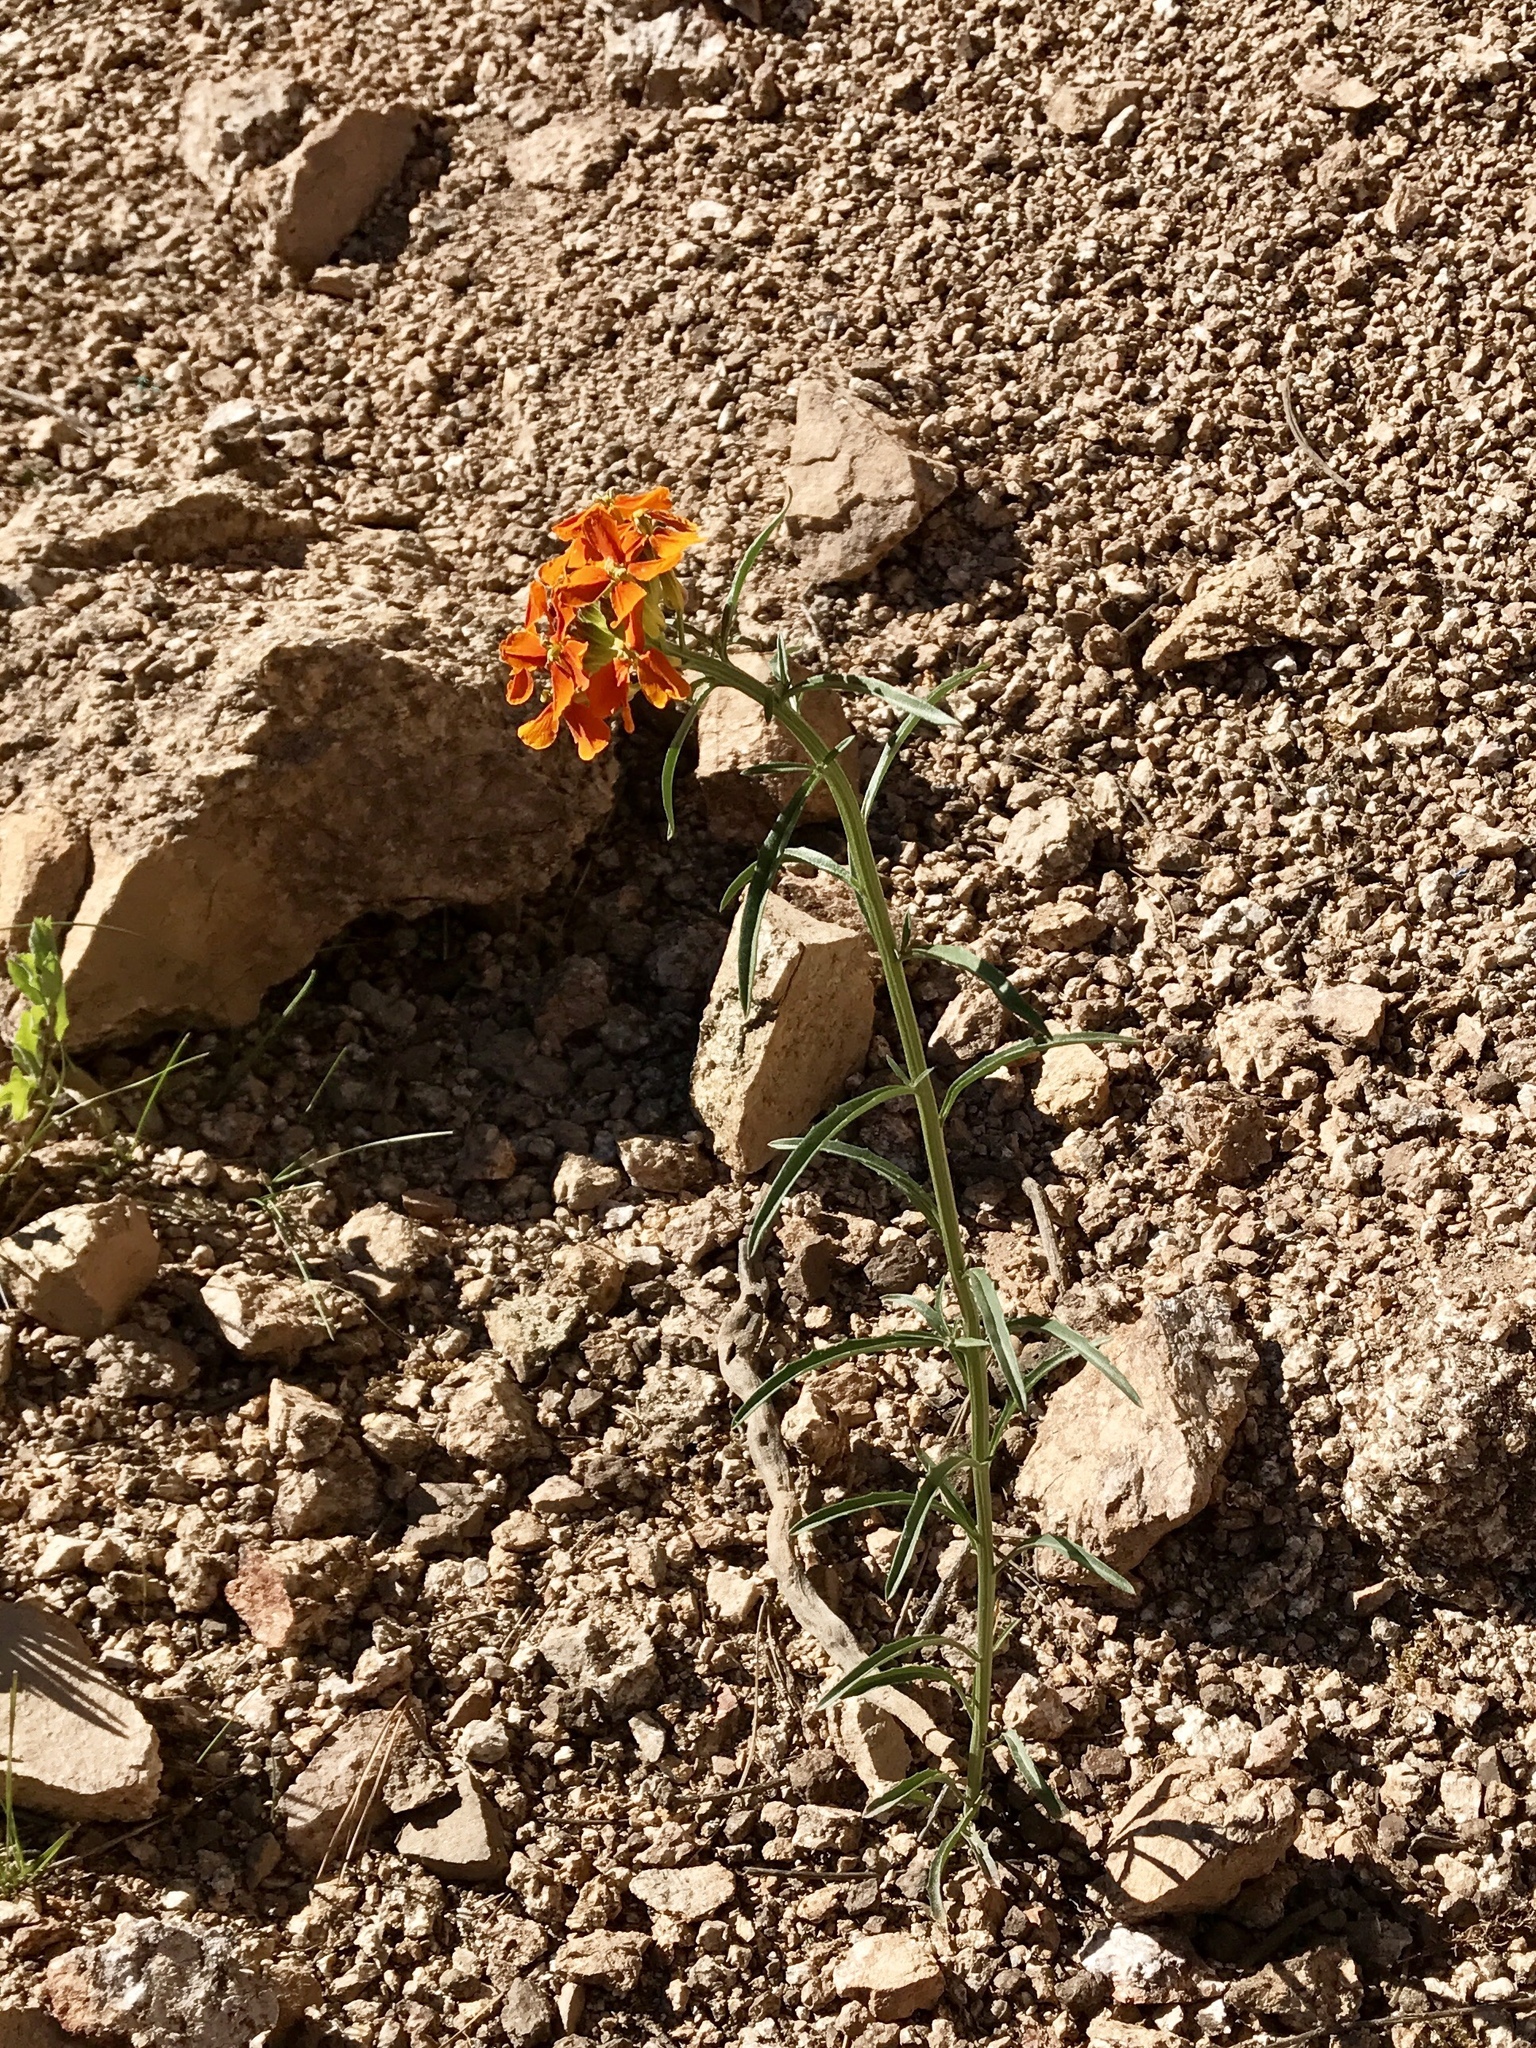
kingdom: Plantae
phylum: Tracheophyta
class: Magnoliopsida
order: Brassicales
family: Brassicaceae
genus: Erysimum
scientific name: Erysimum capitatum
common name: Western wallflower
